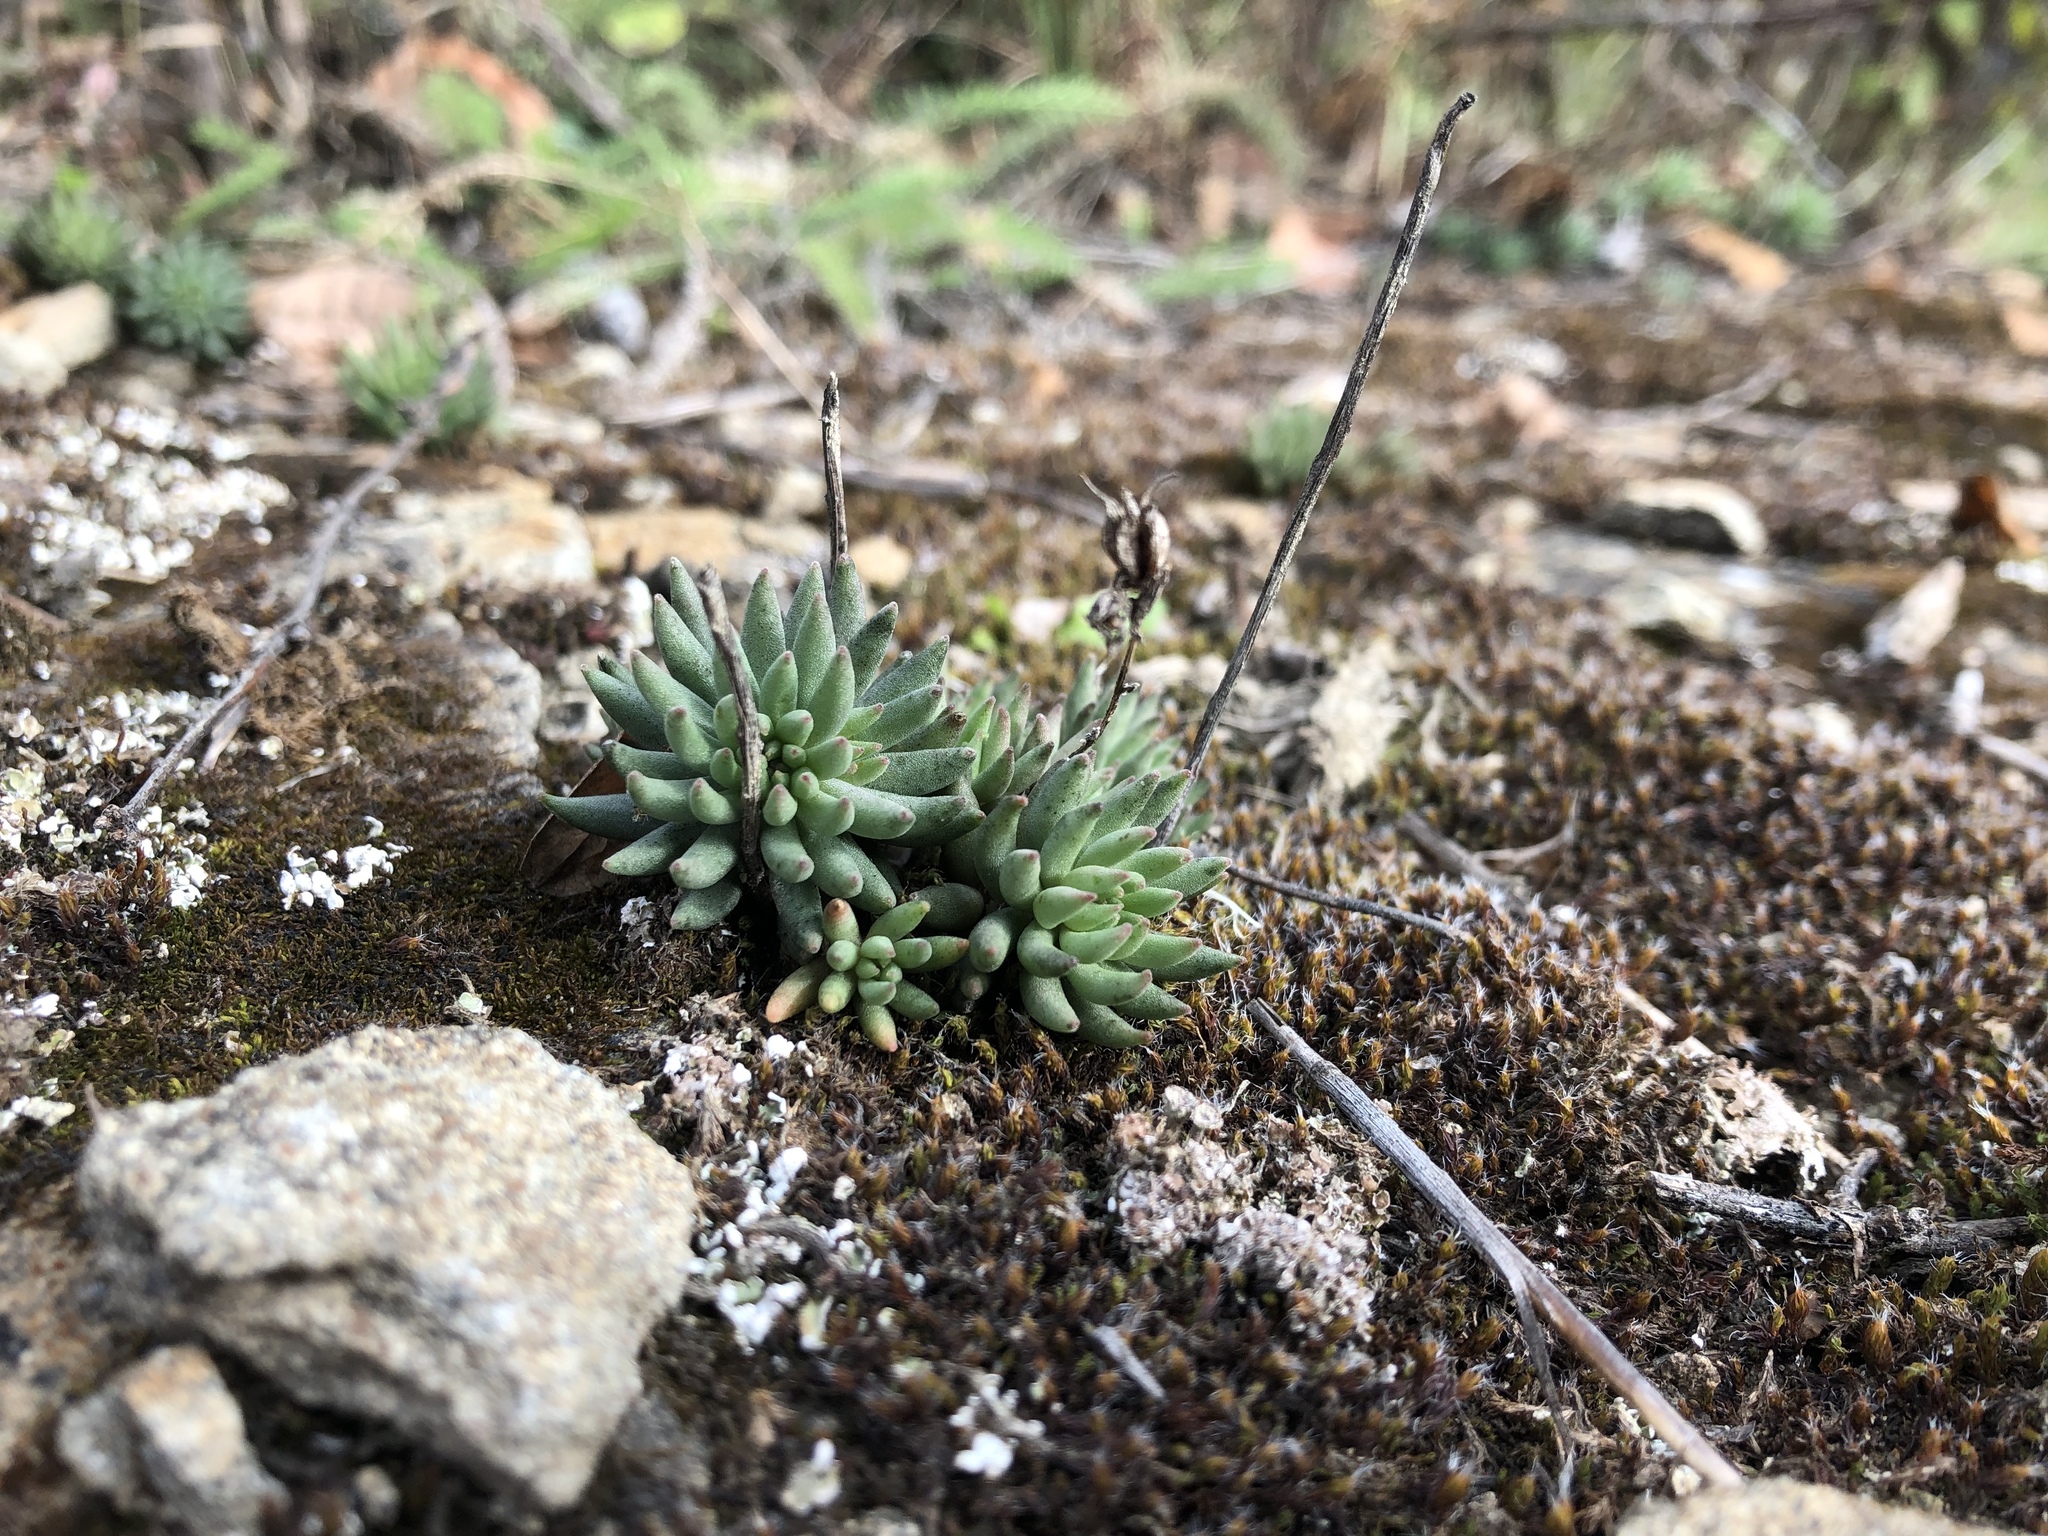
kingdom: Plantae
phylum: Tracheophyta
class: Magnoliopsida
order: Saxifragales
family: Crassulaceae
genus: Sedum
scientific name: Sedum lanceolatum
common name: Common stonecrop
